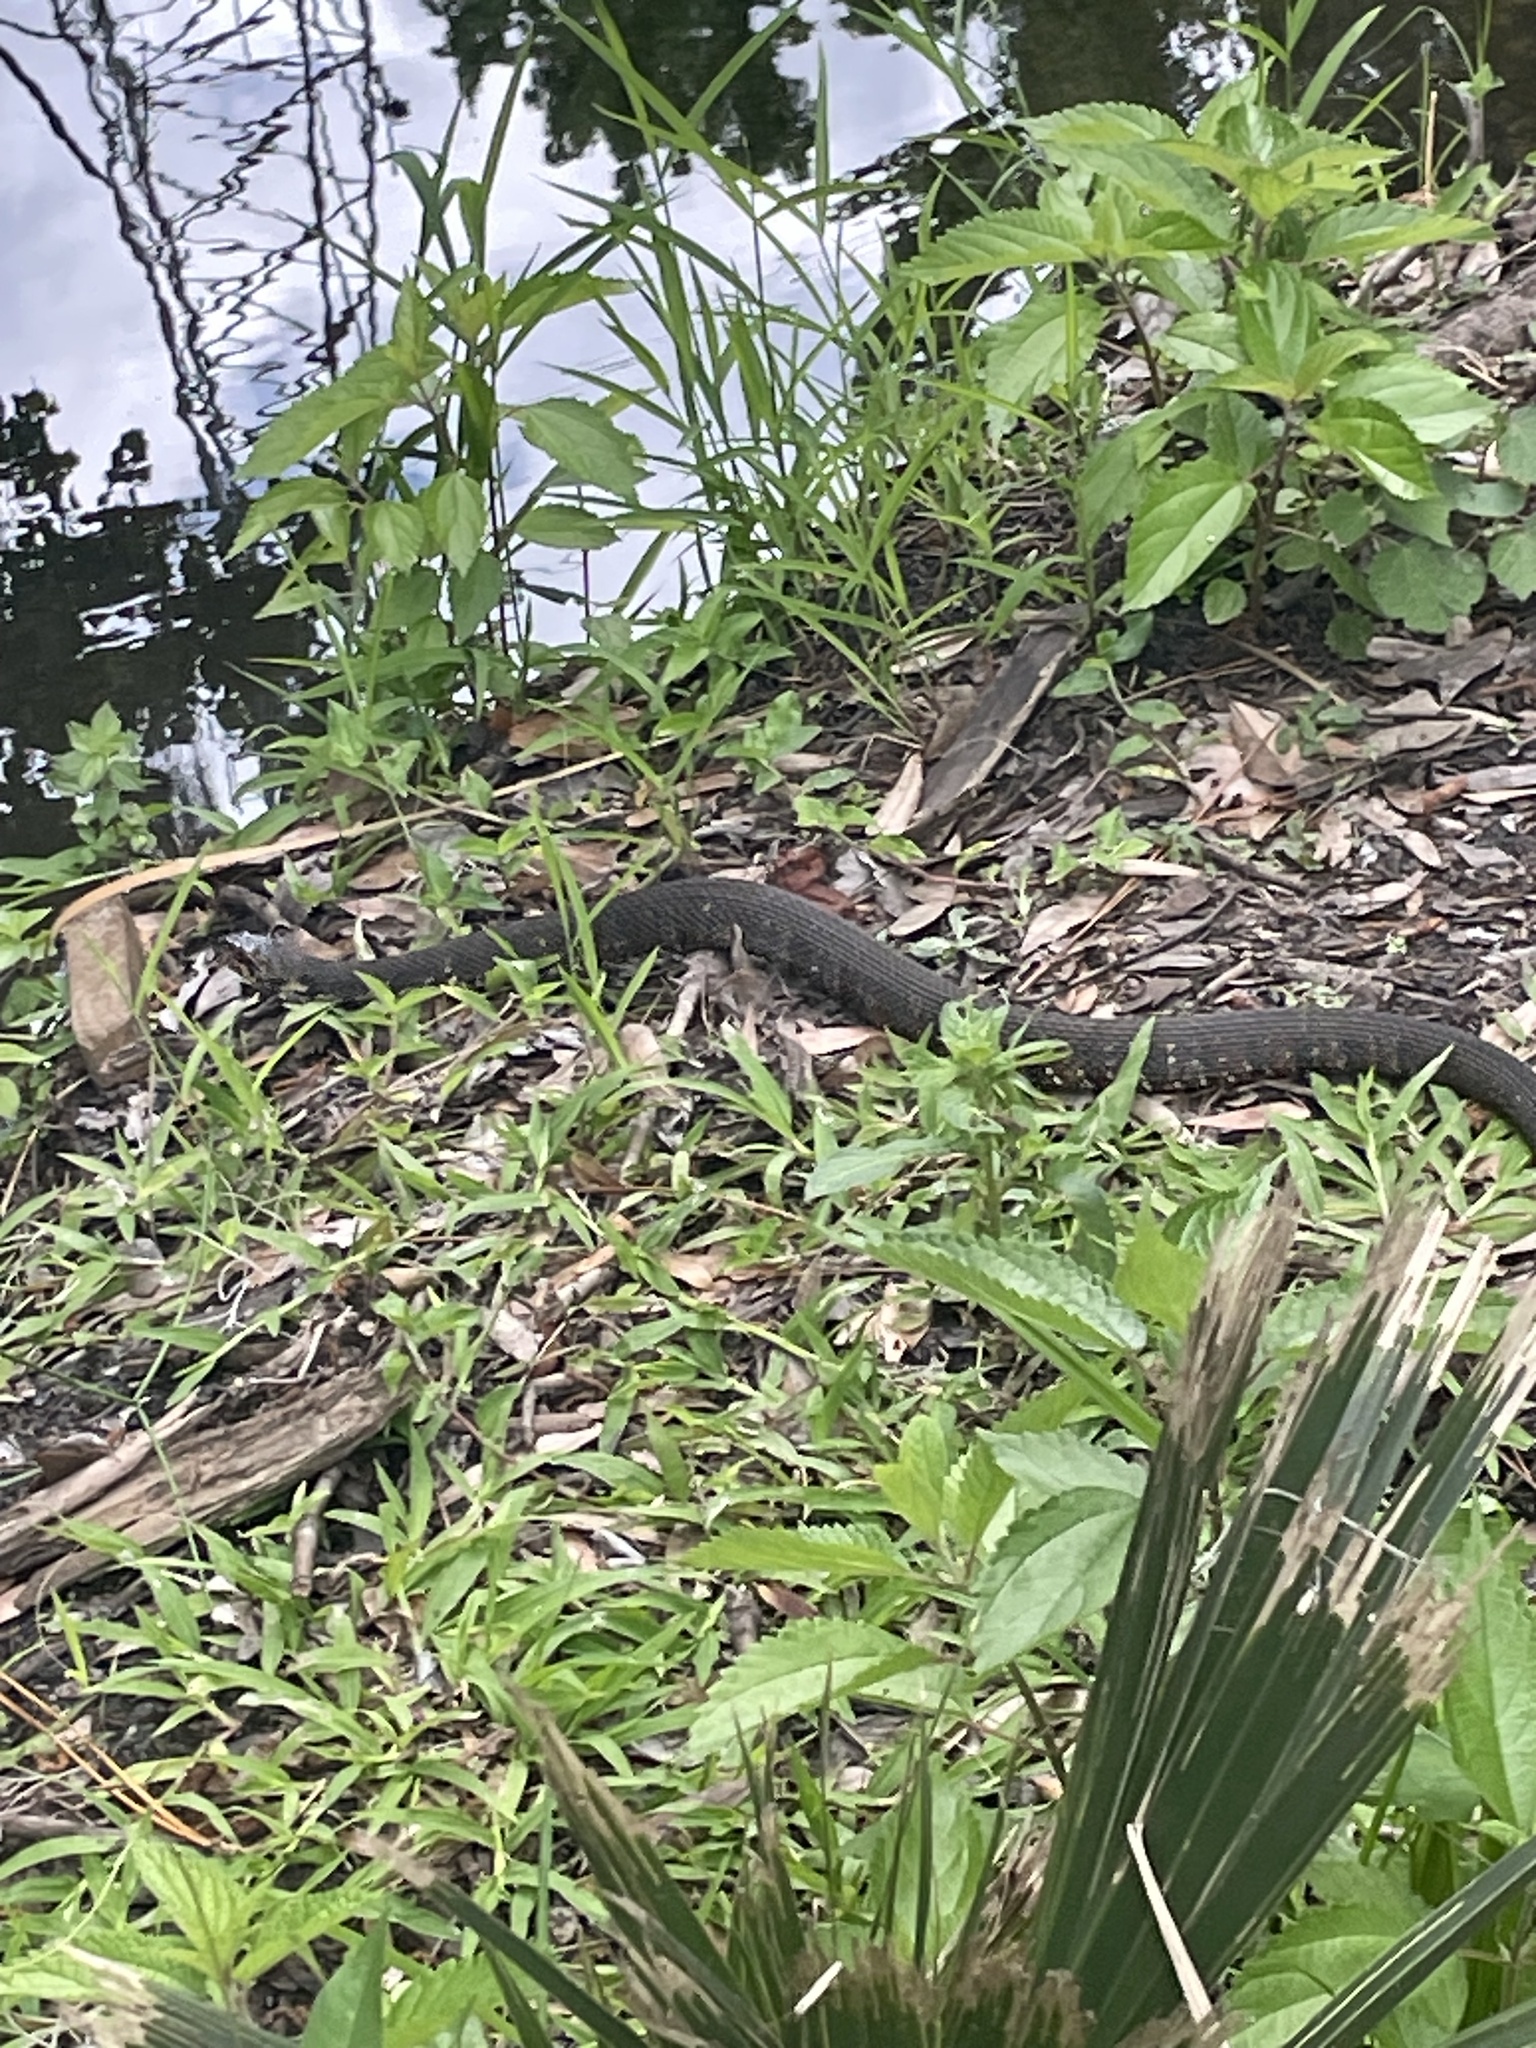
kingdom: Animalia
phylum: Chordata
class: Squamata
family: Colubridae
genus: Nerodia
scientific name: Nerodia fasciata
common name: Southern water snake
